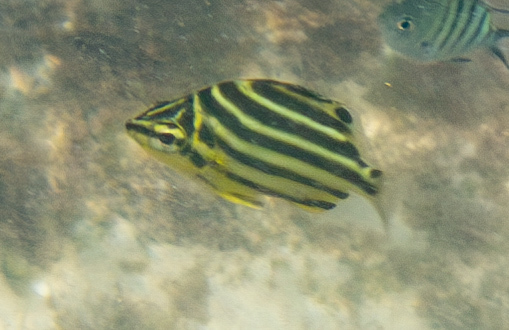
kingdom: Animalia
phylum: Chordata
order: Perciformes
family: Kyphosidae
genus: Microcanthus
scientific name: Microcanthus joyceae
